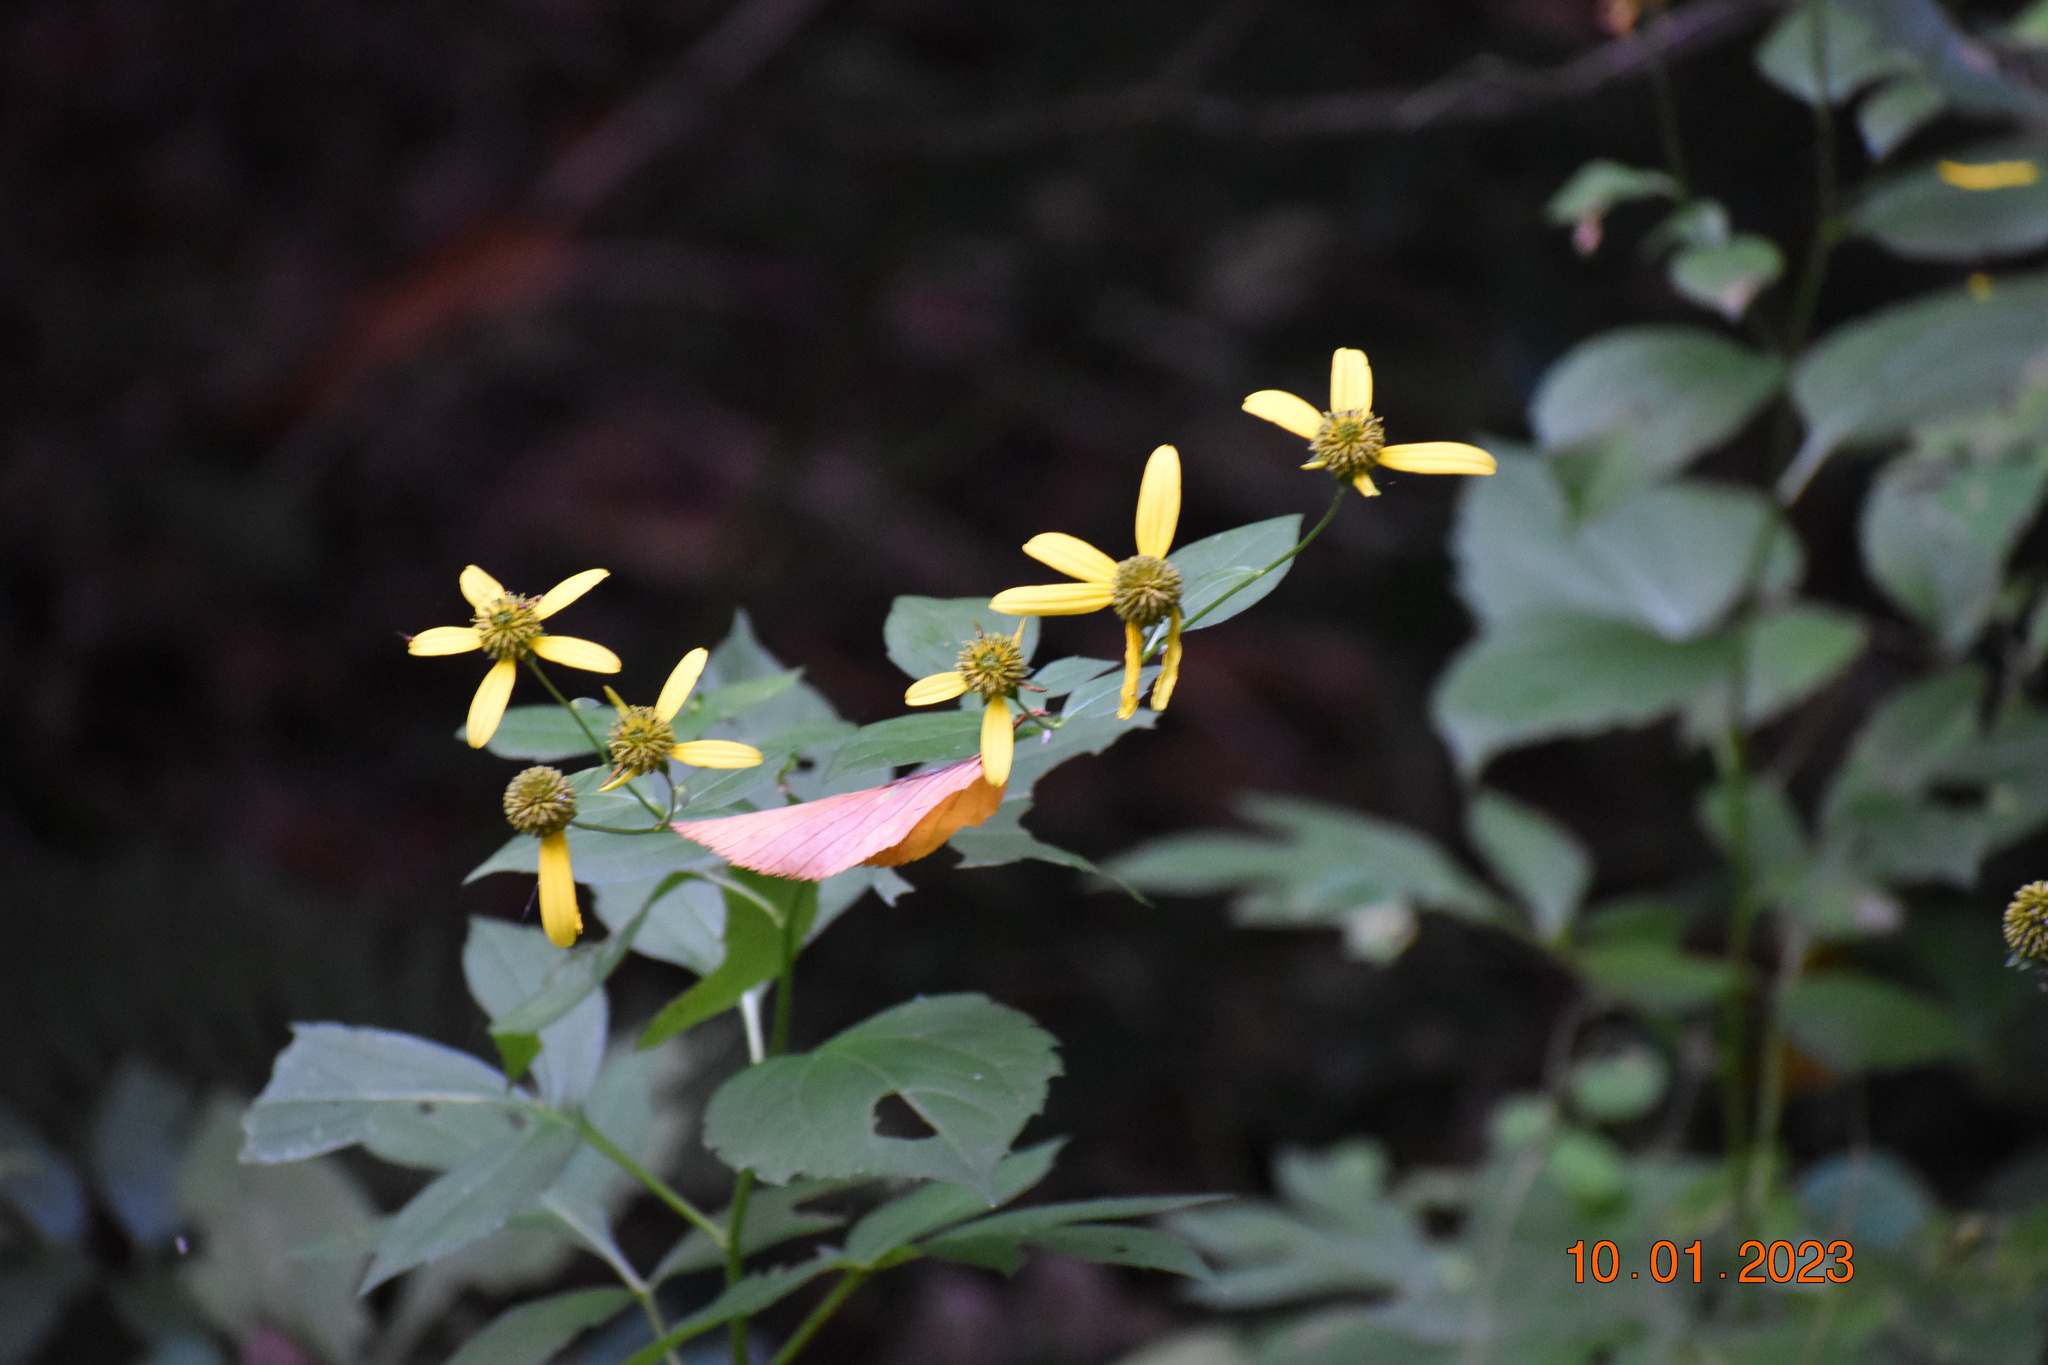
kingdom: Plantae
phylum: Tracheophyta
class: Magnoliopsida
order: Asterales
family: Asteraceae
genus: Rudbeckia
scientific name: Rudbeckia laciniata
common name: Coneflower
